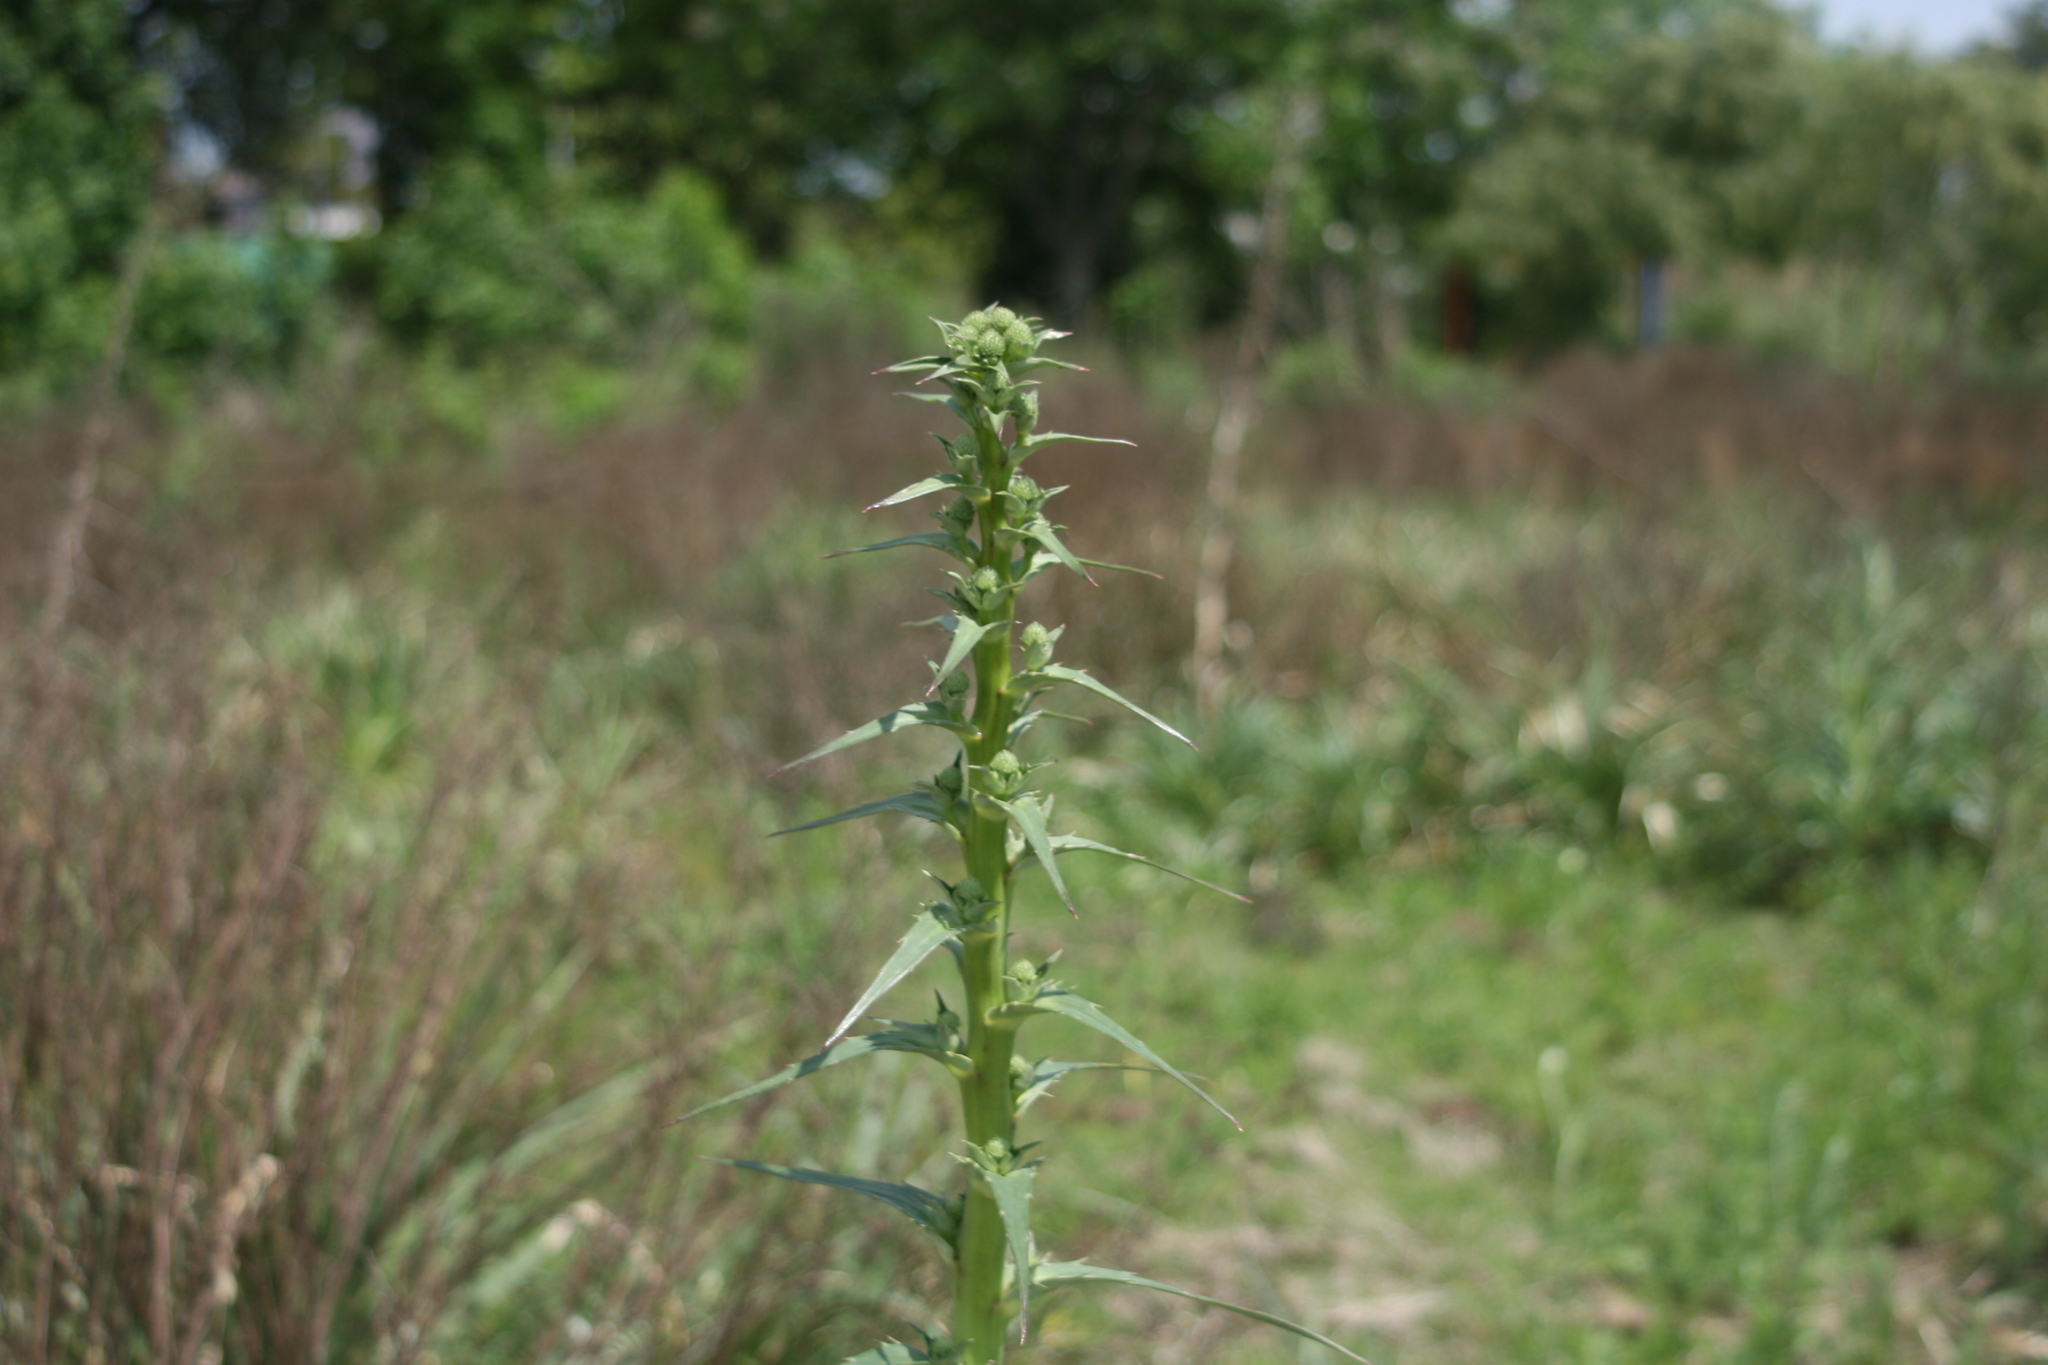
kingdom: Plantae
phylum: Tracheophyta
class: Magnoliopsida
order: Apiales
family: Apiaceae
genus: Eryngium
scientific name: Eryngium horridum
